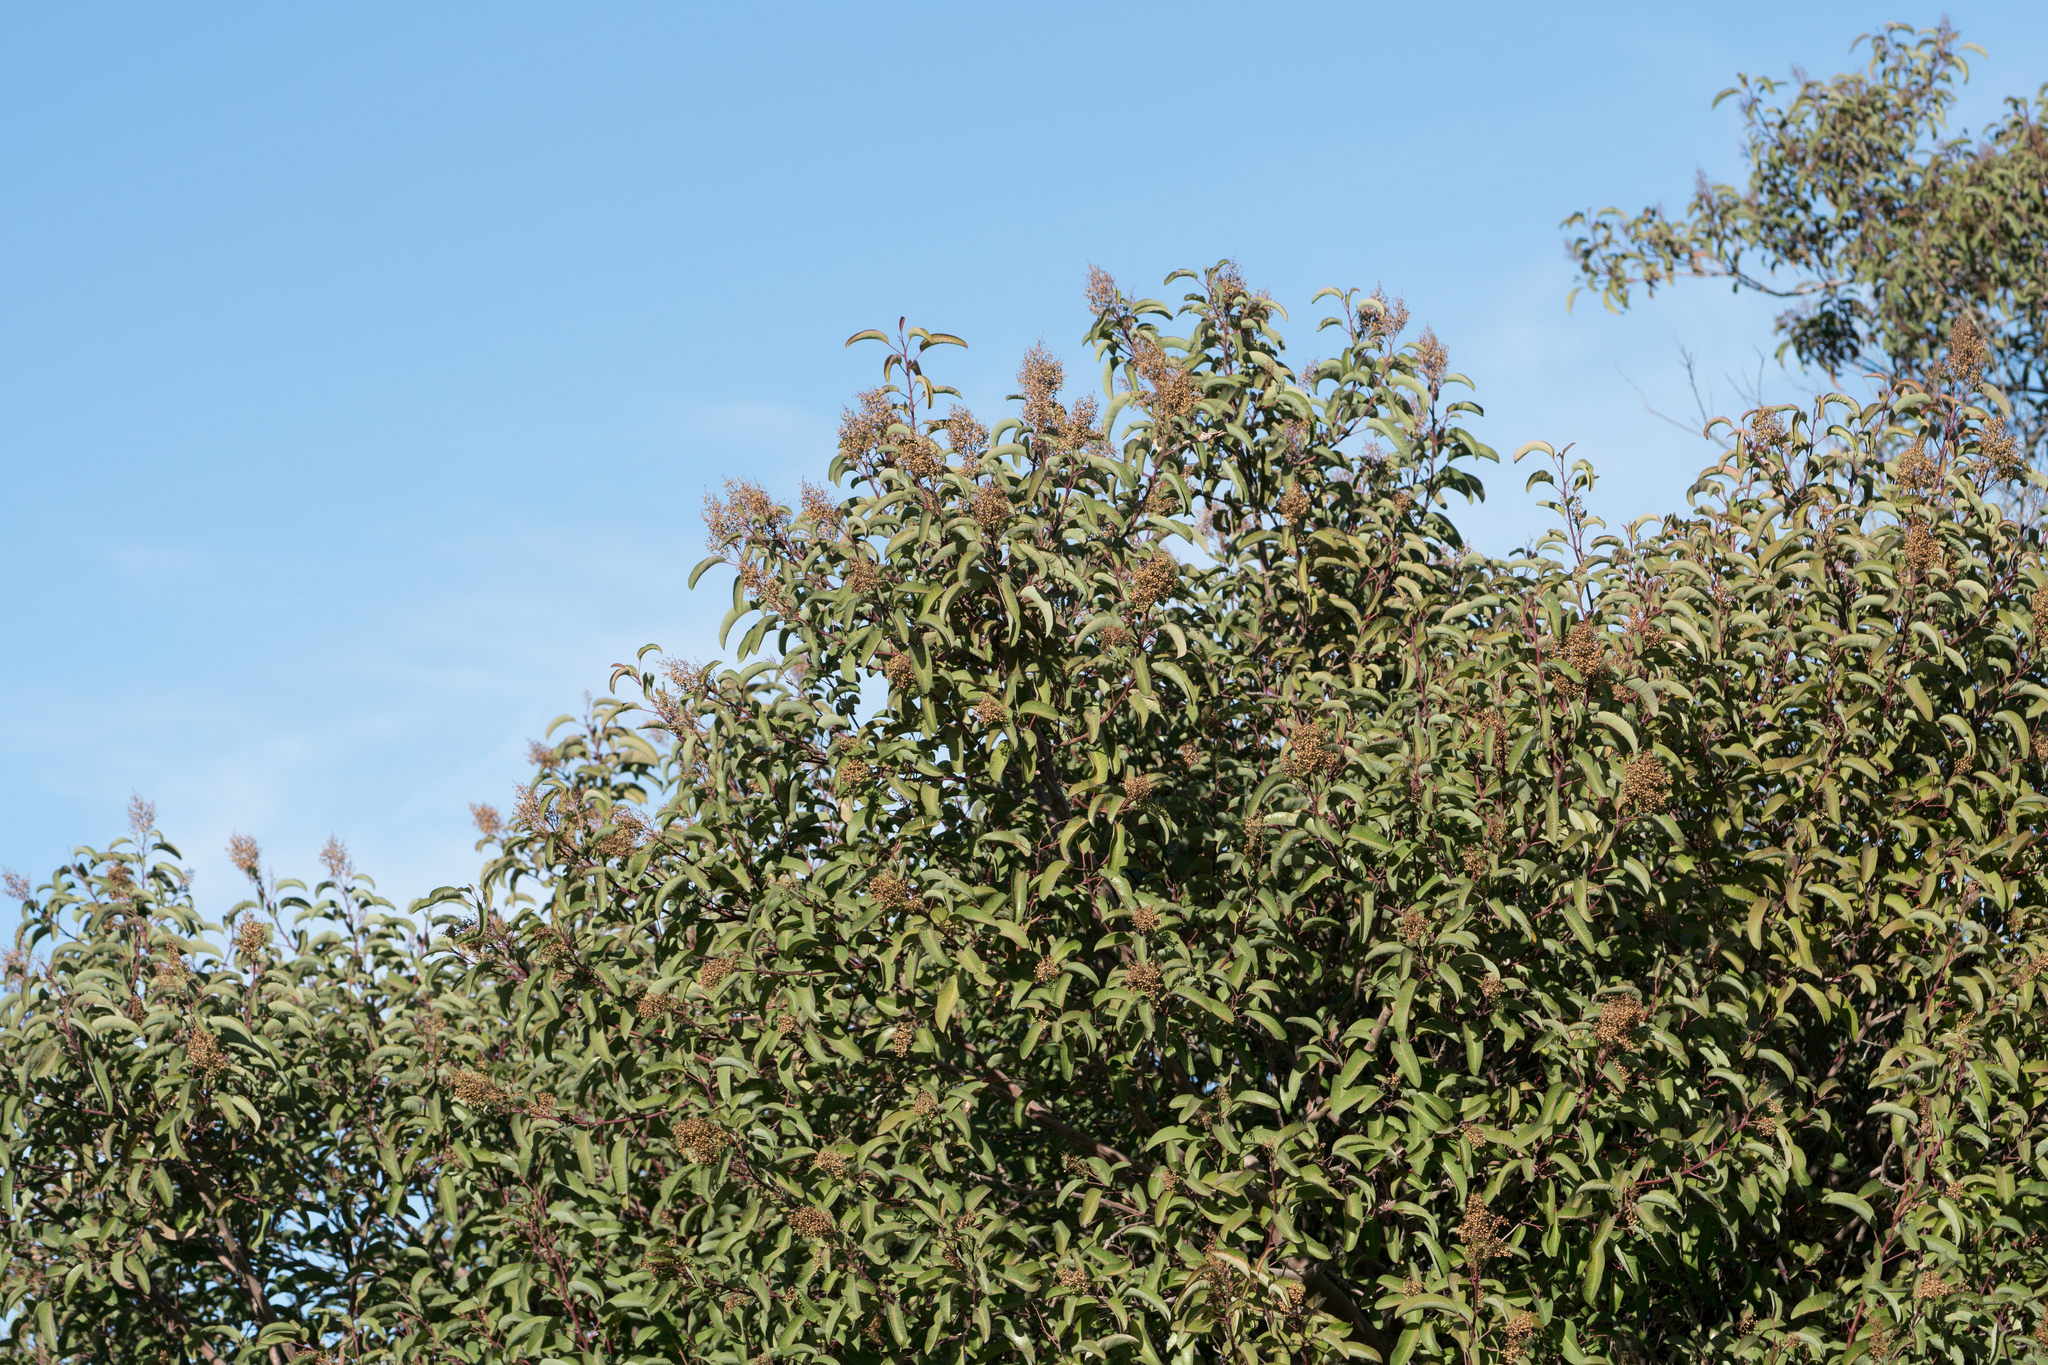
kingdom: Plantae
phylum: Tracheophyta
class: Magnoliopsida
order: Sapindales
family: Anacardiaceae
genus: Malosma
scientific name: Malosma laurina
